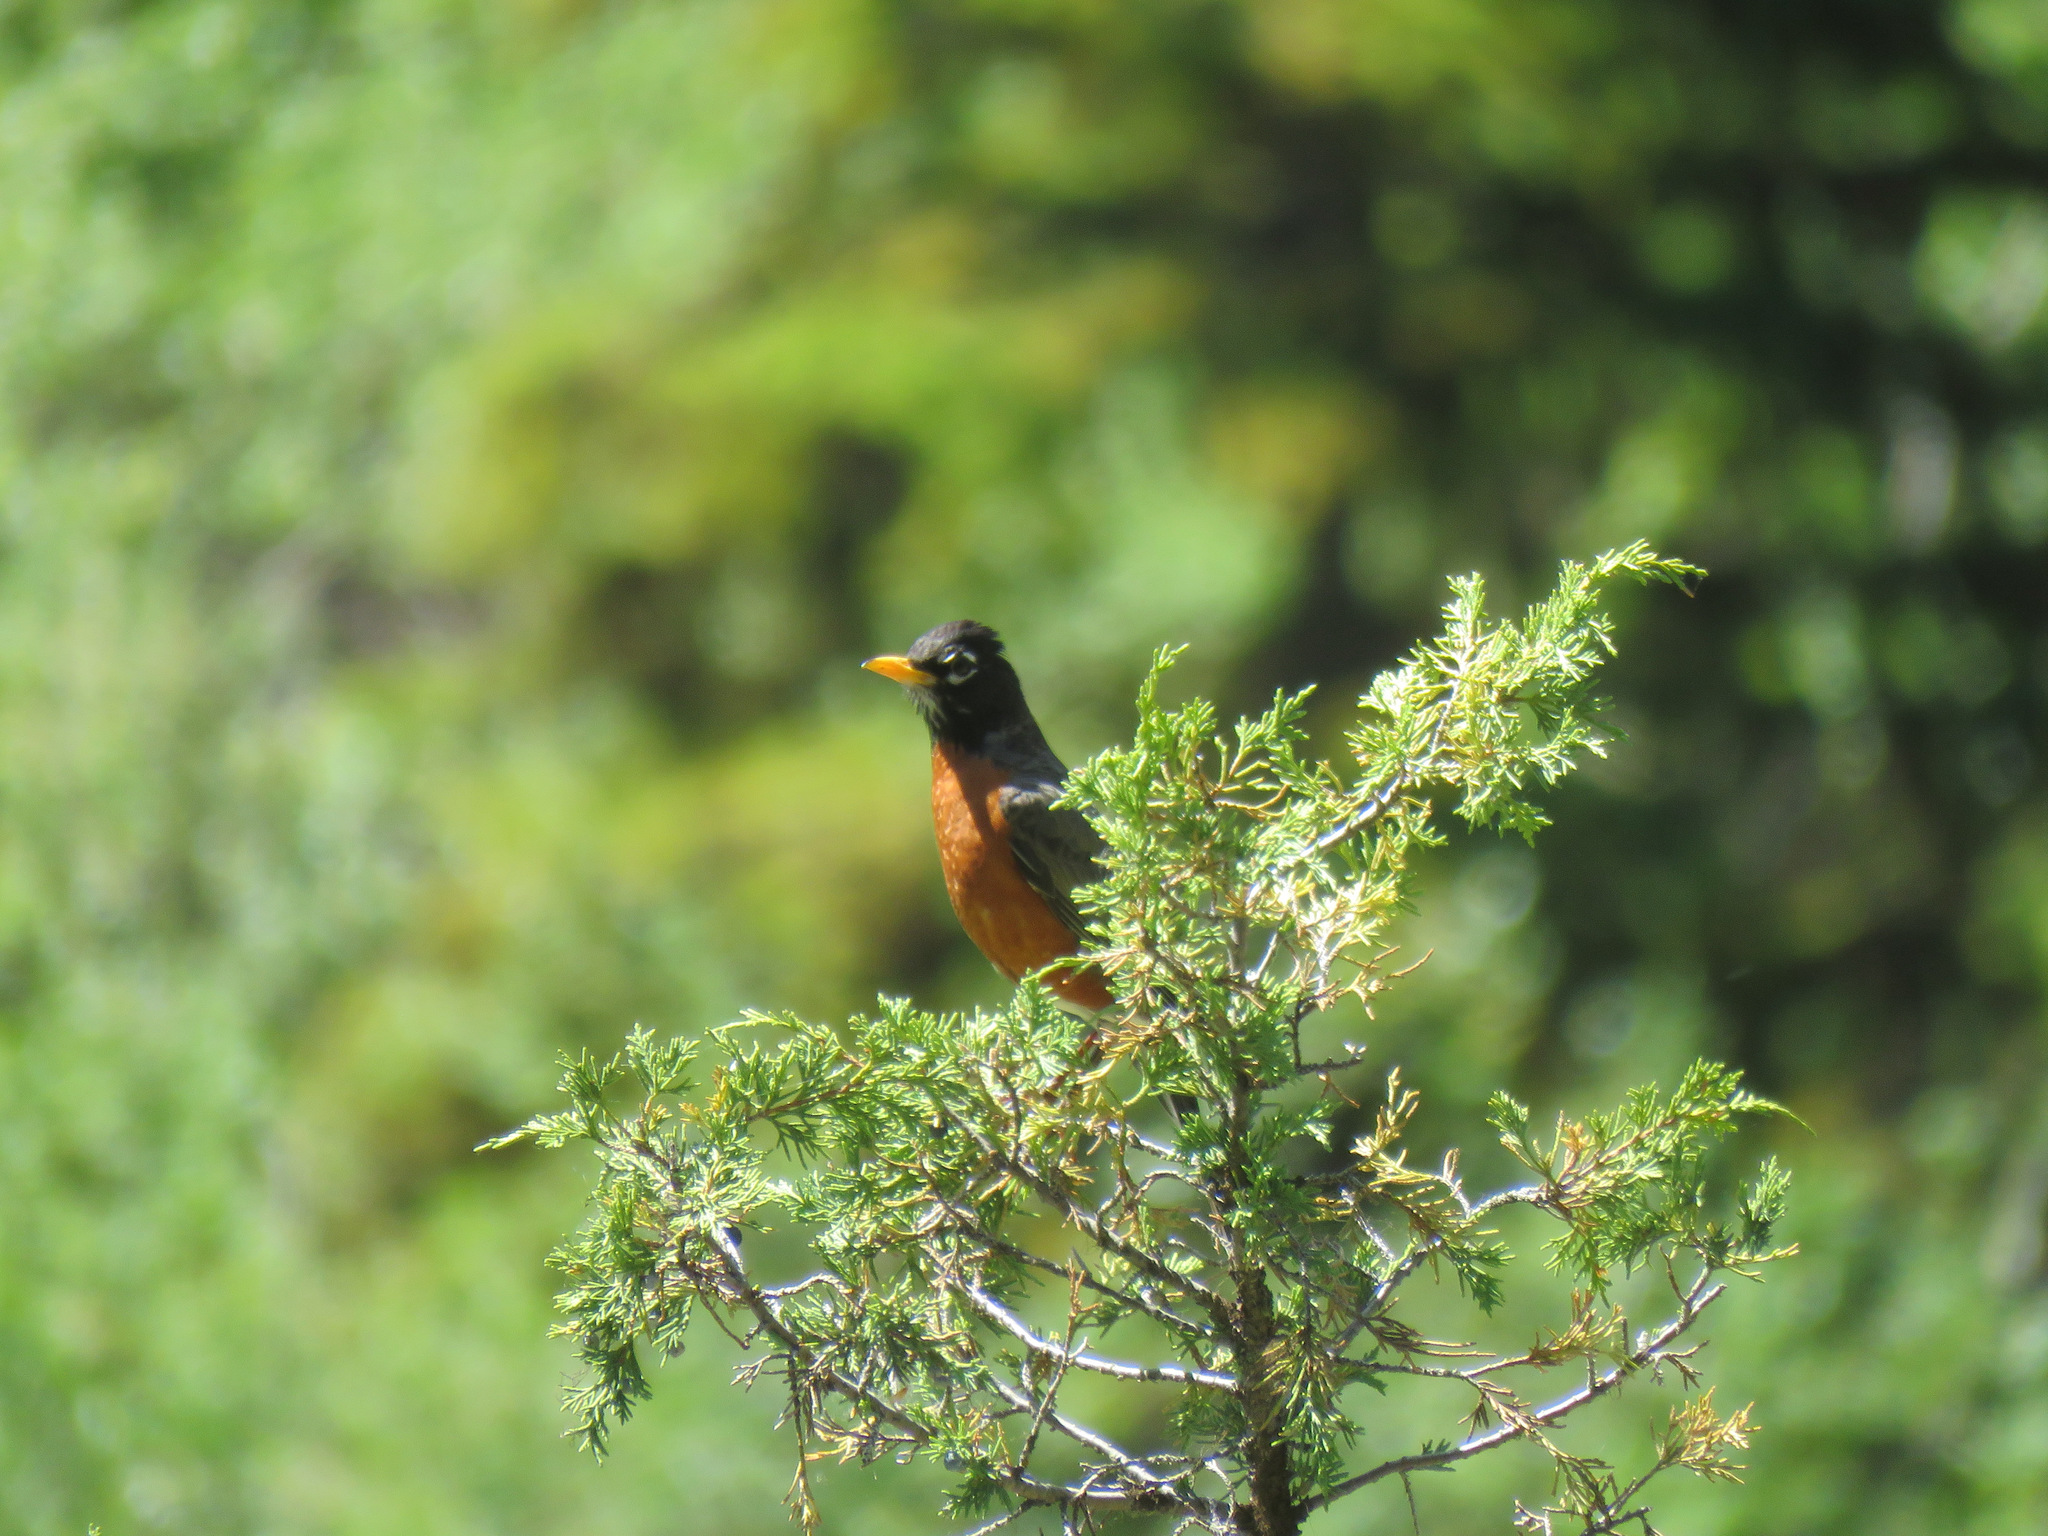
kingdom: Animalia
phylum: Chordata
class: Aves
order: Passeriformes
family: Turdidae
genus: Turdus
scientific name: Turdus migratorius
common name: American robin
